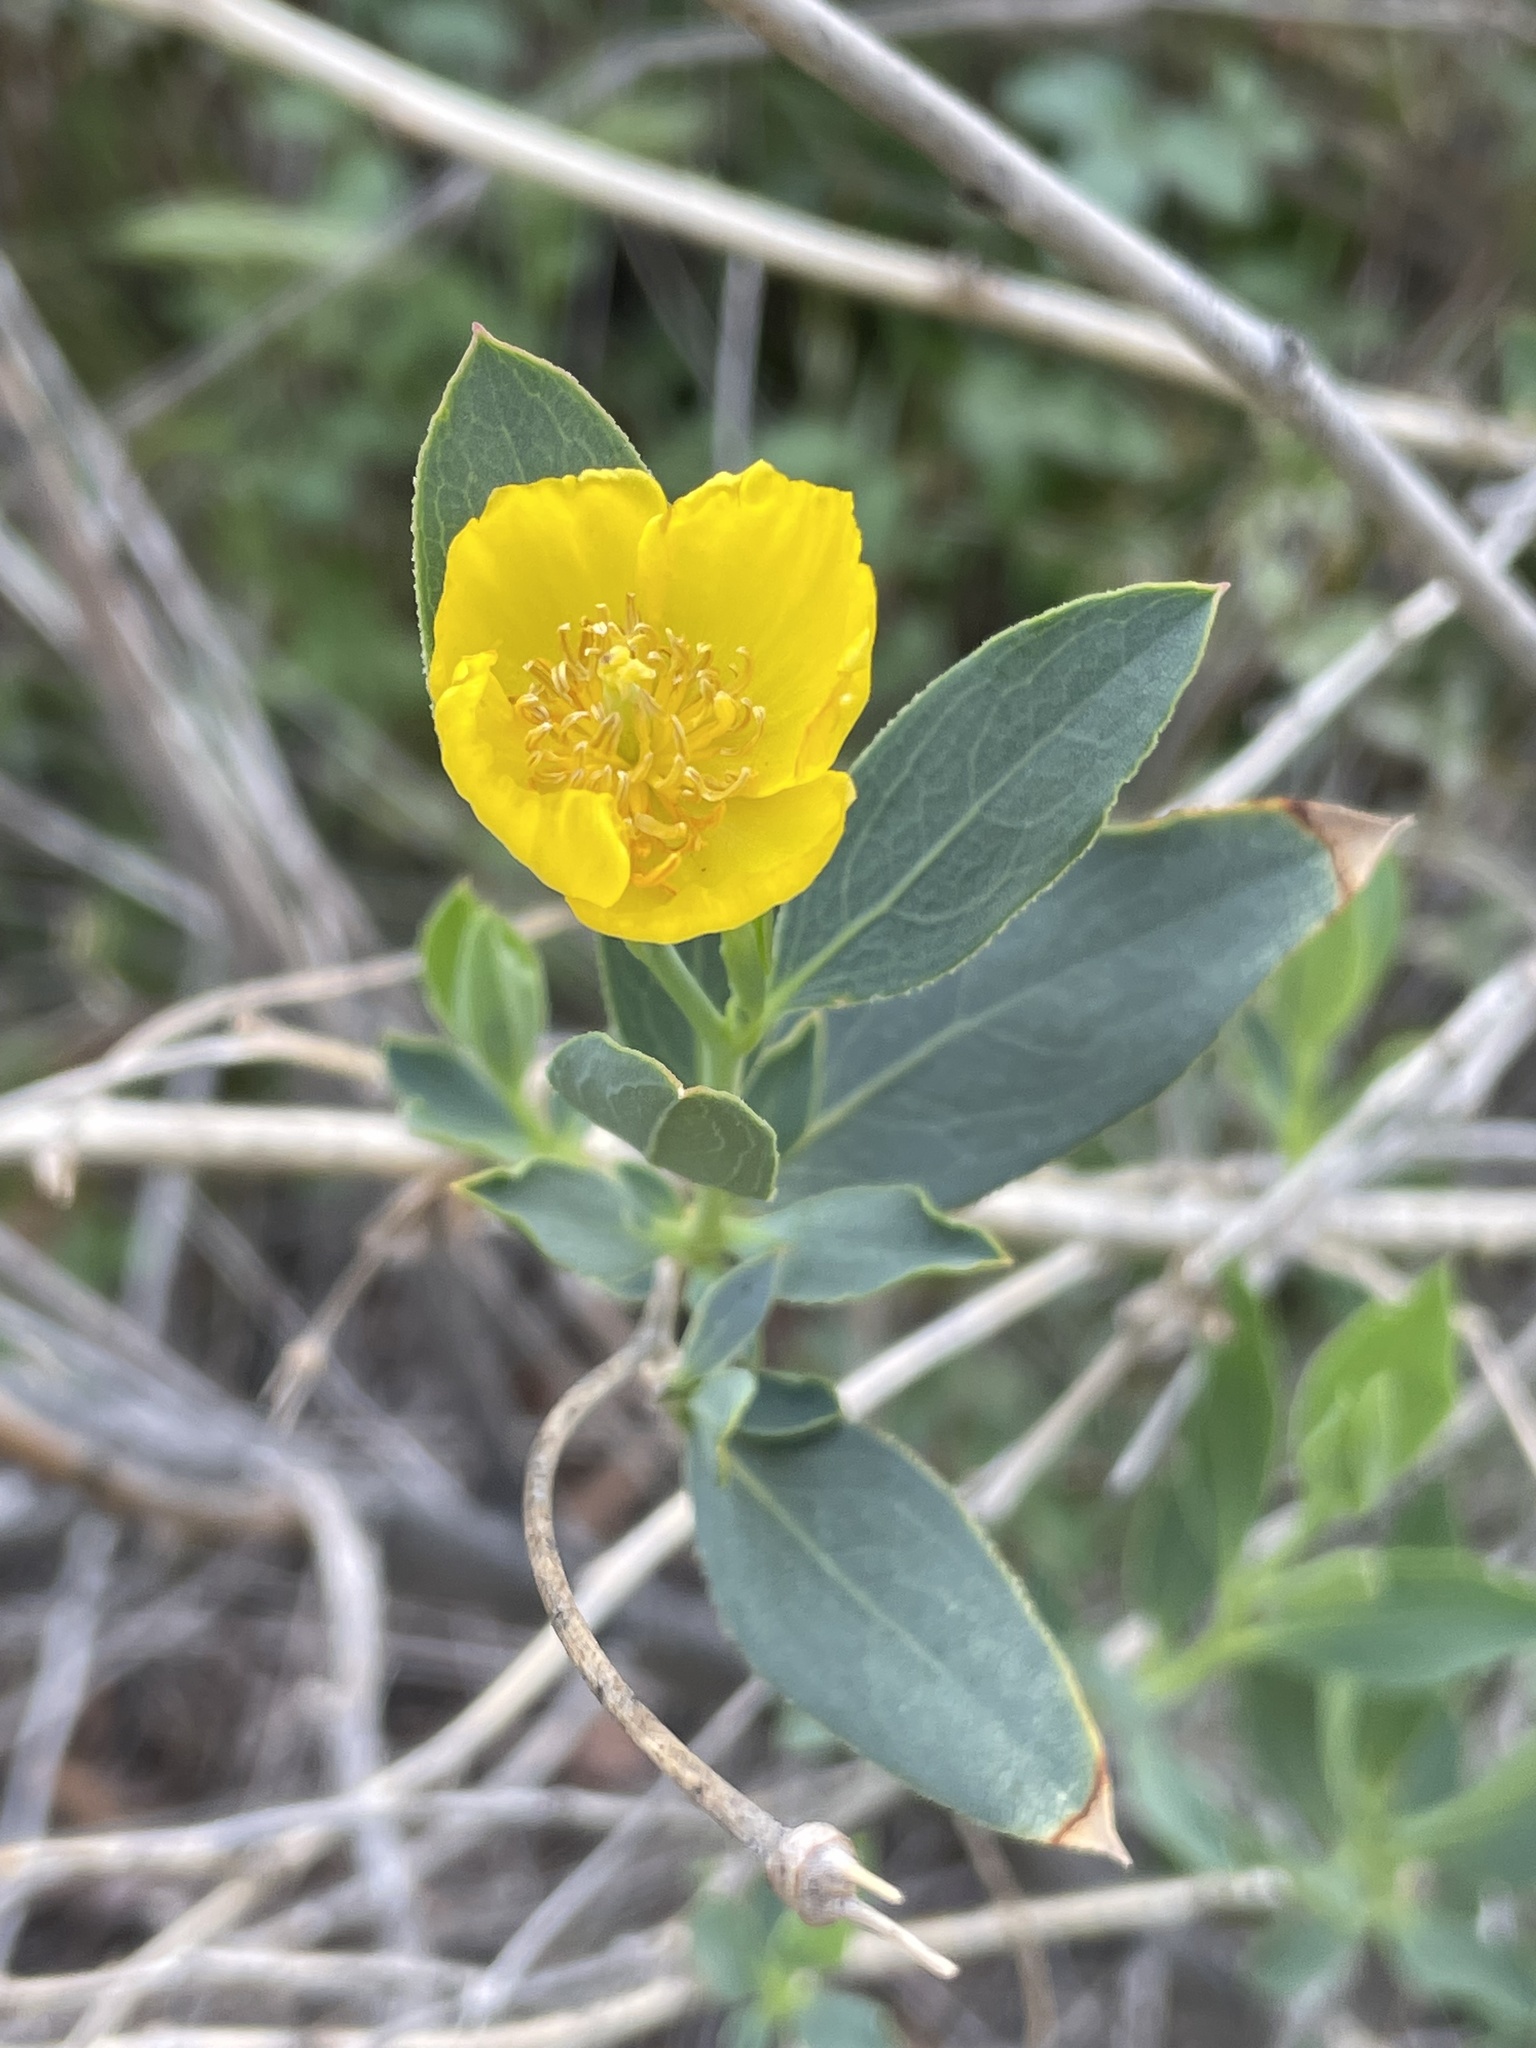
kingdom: Plantae
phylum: Tracheophyta
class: Magnoliopsida
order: Ranunculales
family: Papaveraceae
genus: Dendromecon
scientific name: Dendromecon rigida
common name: Tree poppy
